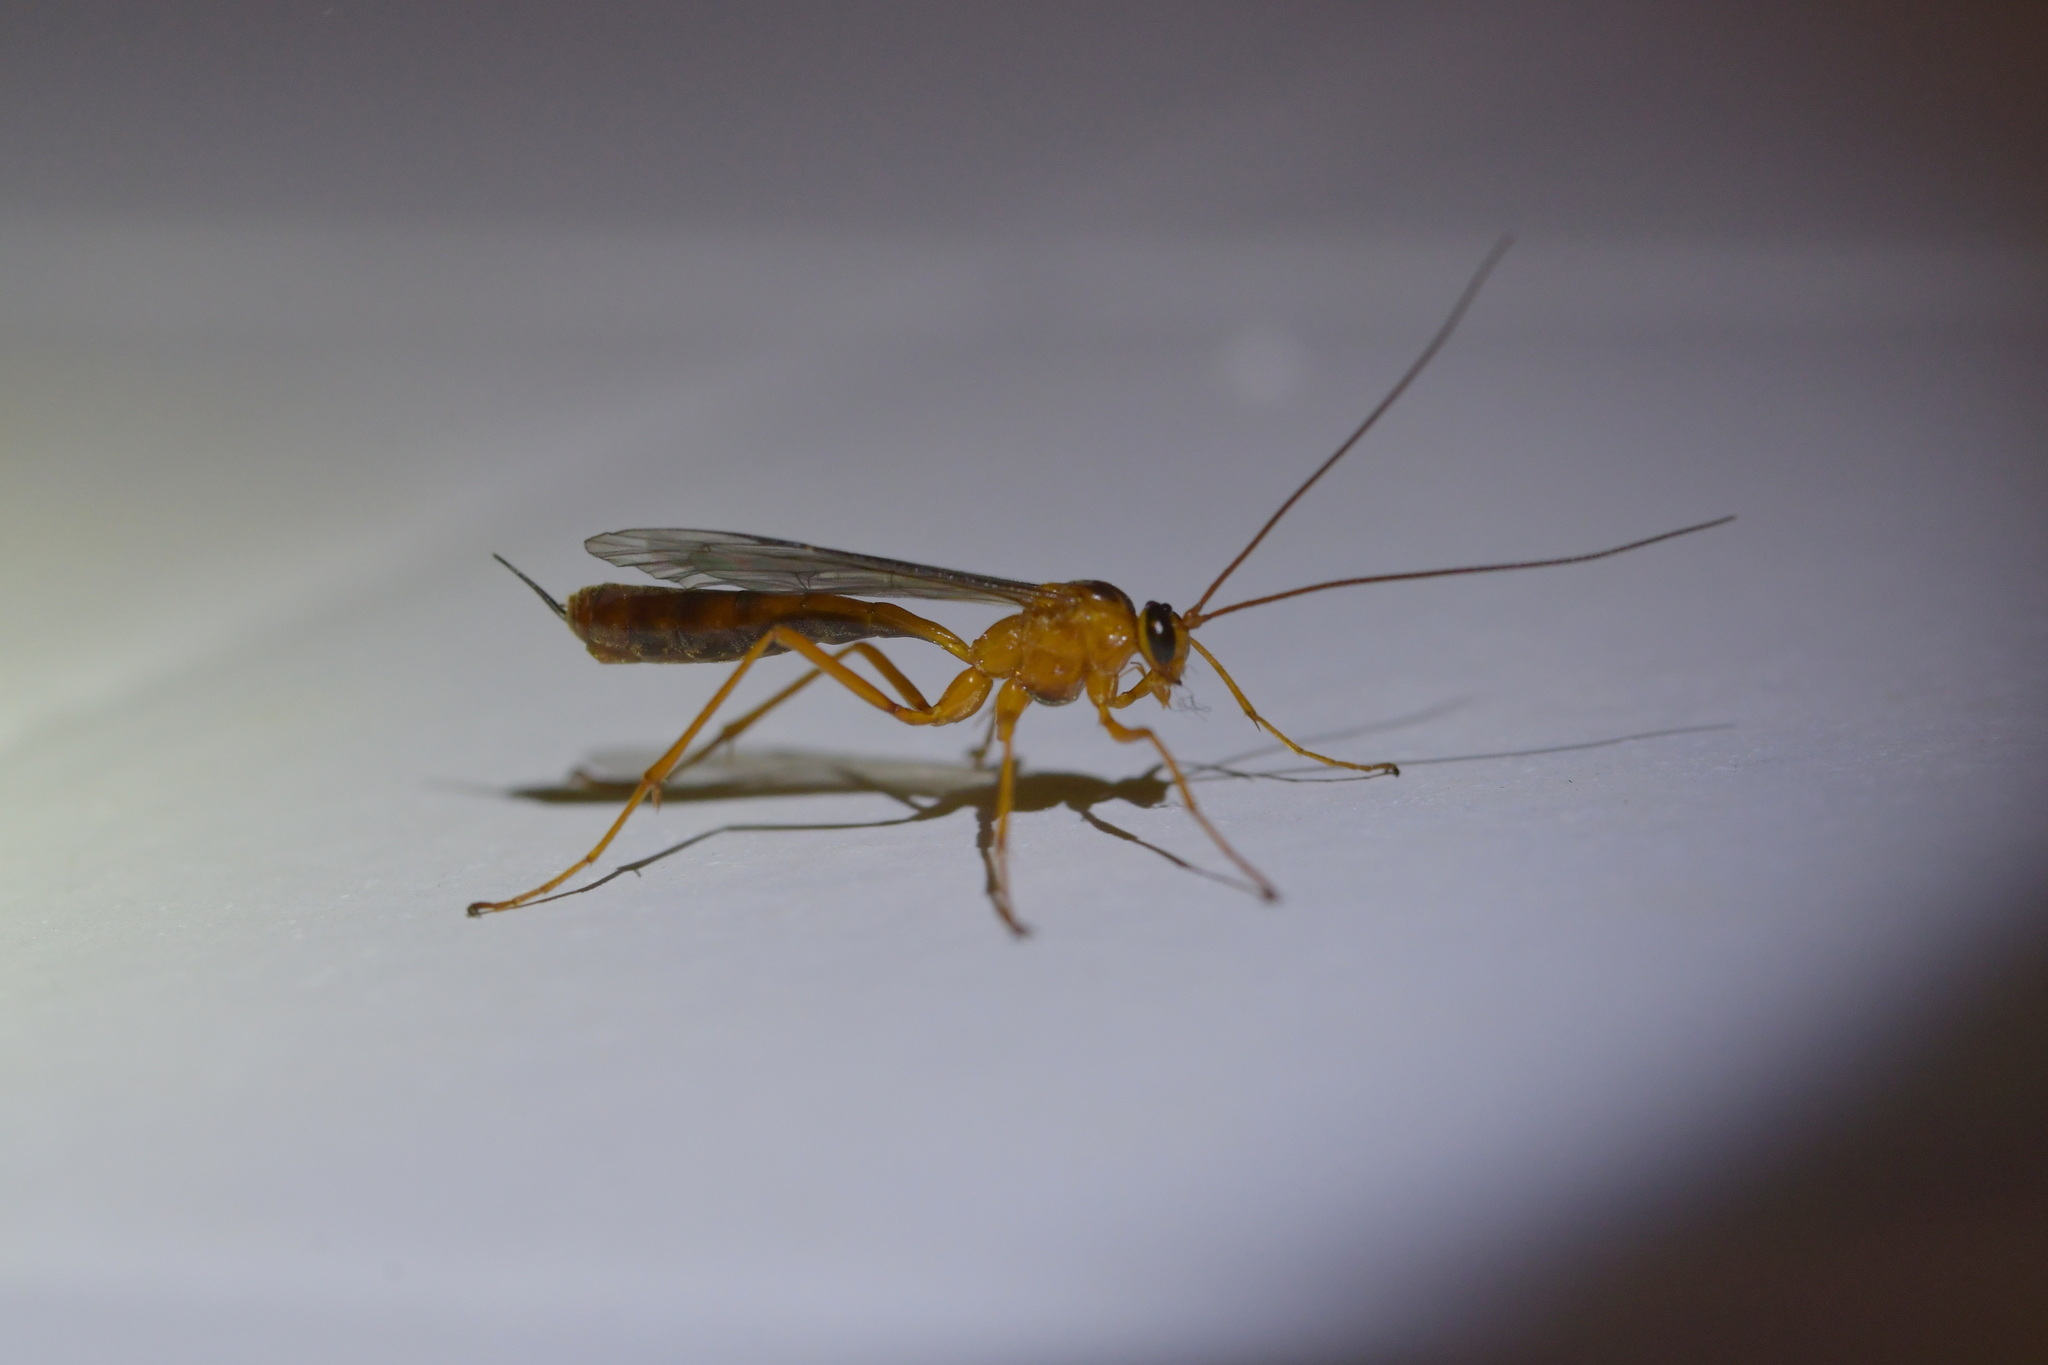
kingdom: Animalia
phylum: Arthropoda
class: Insecta
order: Hymenoptera
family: Ichneumonidae
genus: Netelia
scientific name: Netelia ephippiata
